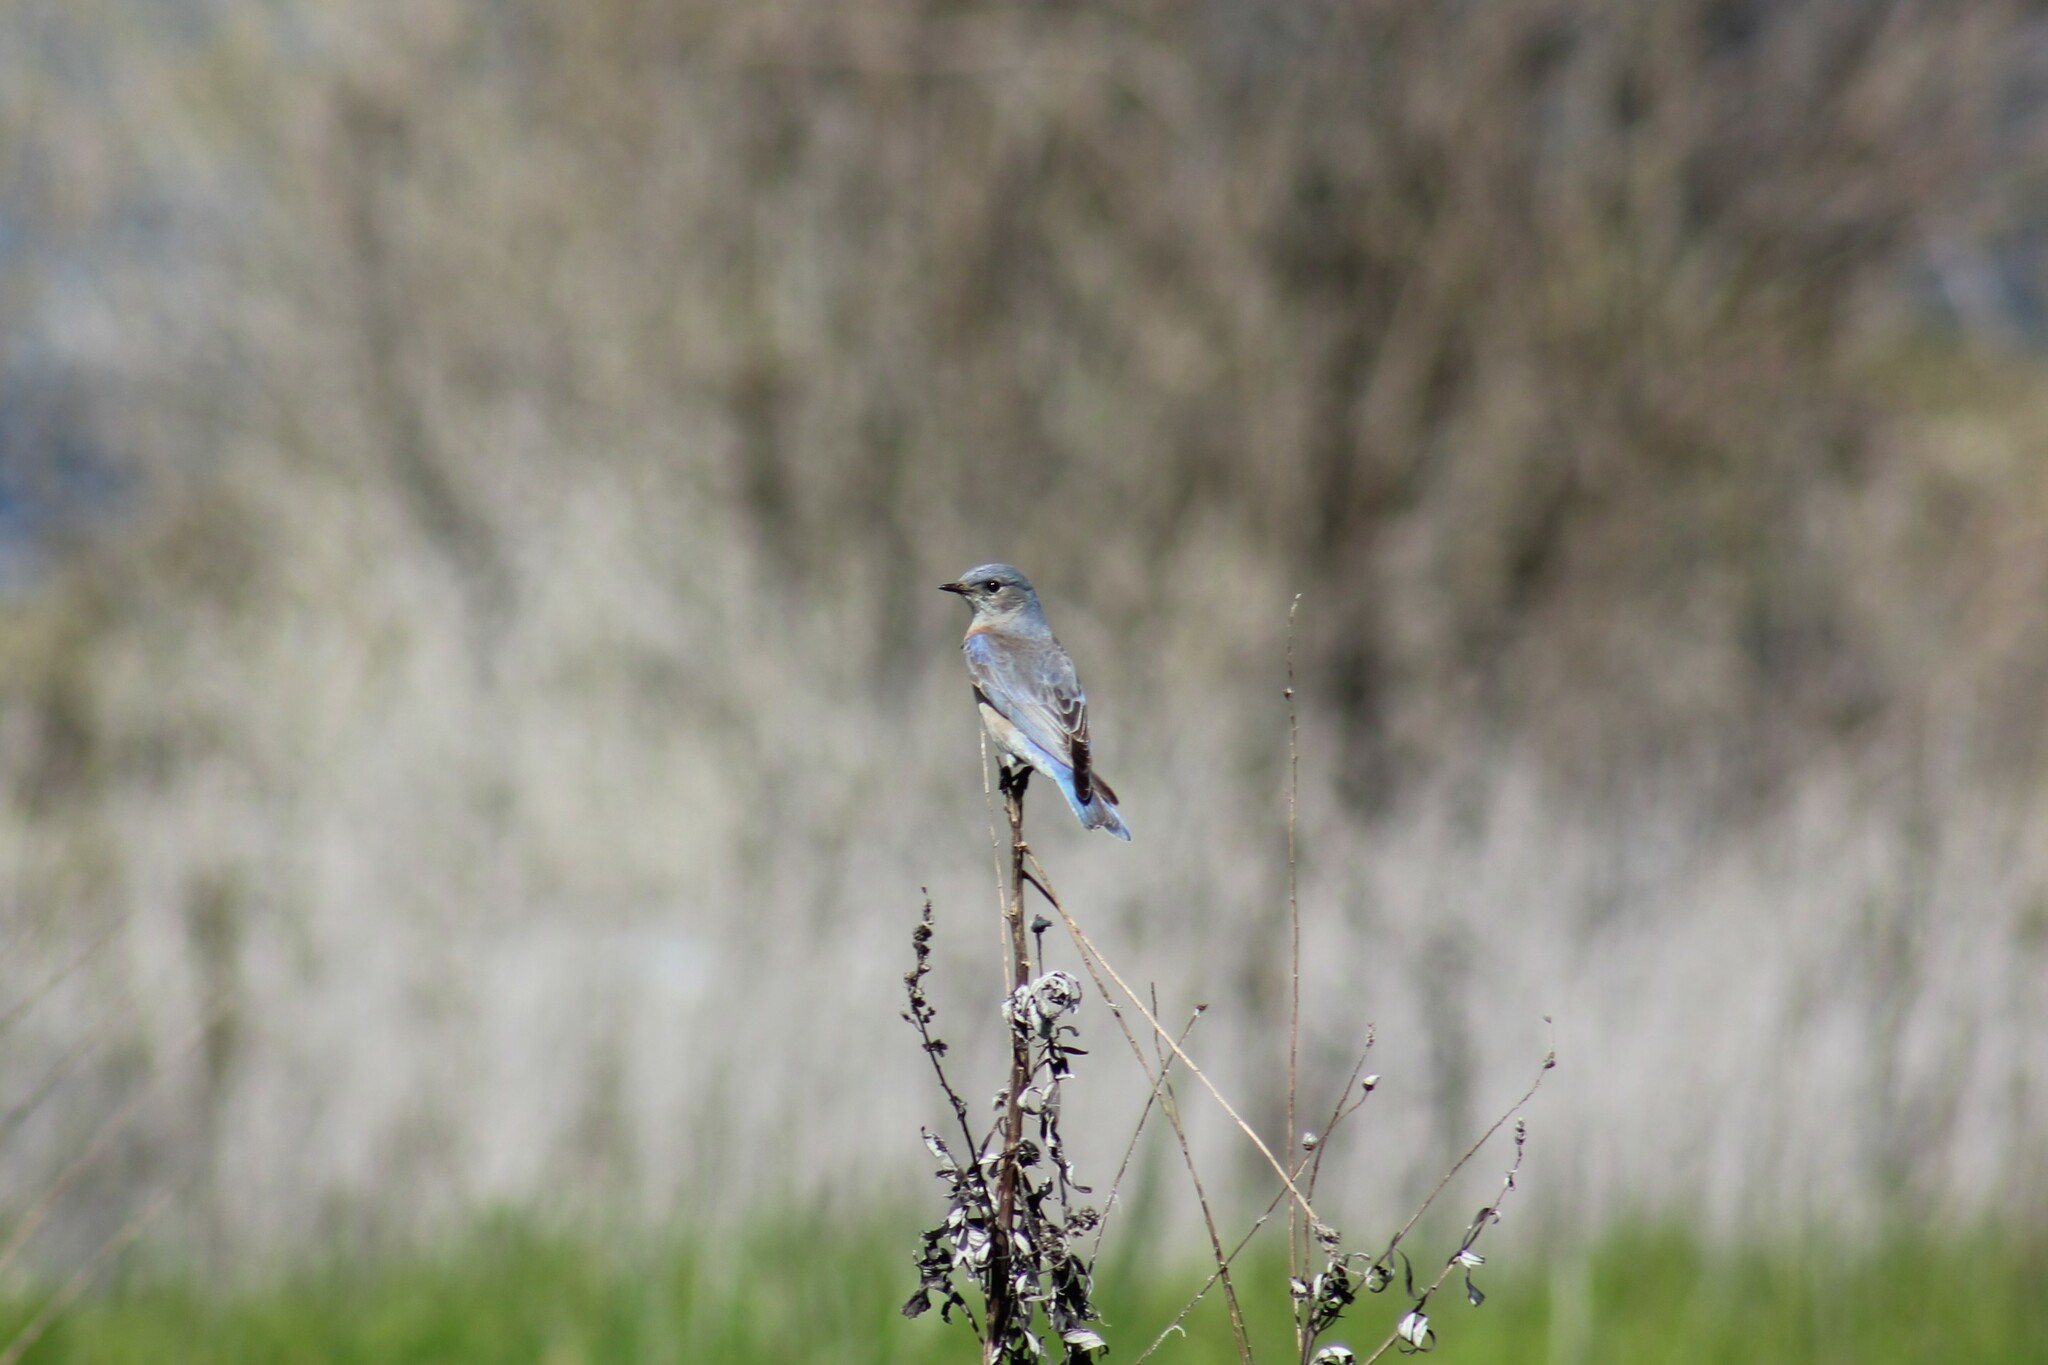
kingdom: Animalia
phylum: Chordata
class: Aves
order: Passeriformes
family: Turdidae
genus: Sialia
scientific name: Sialia mexicana
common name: Western bluebird
